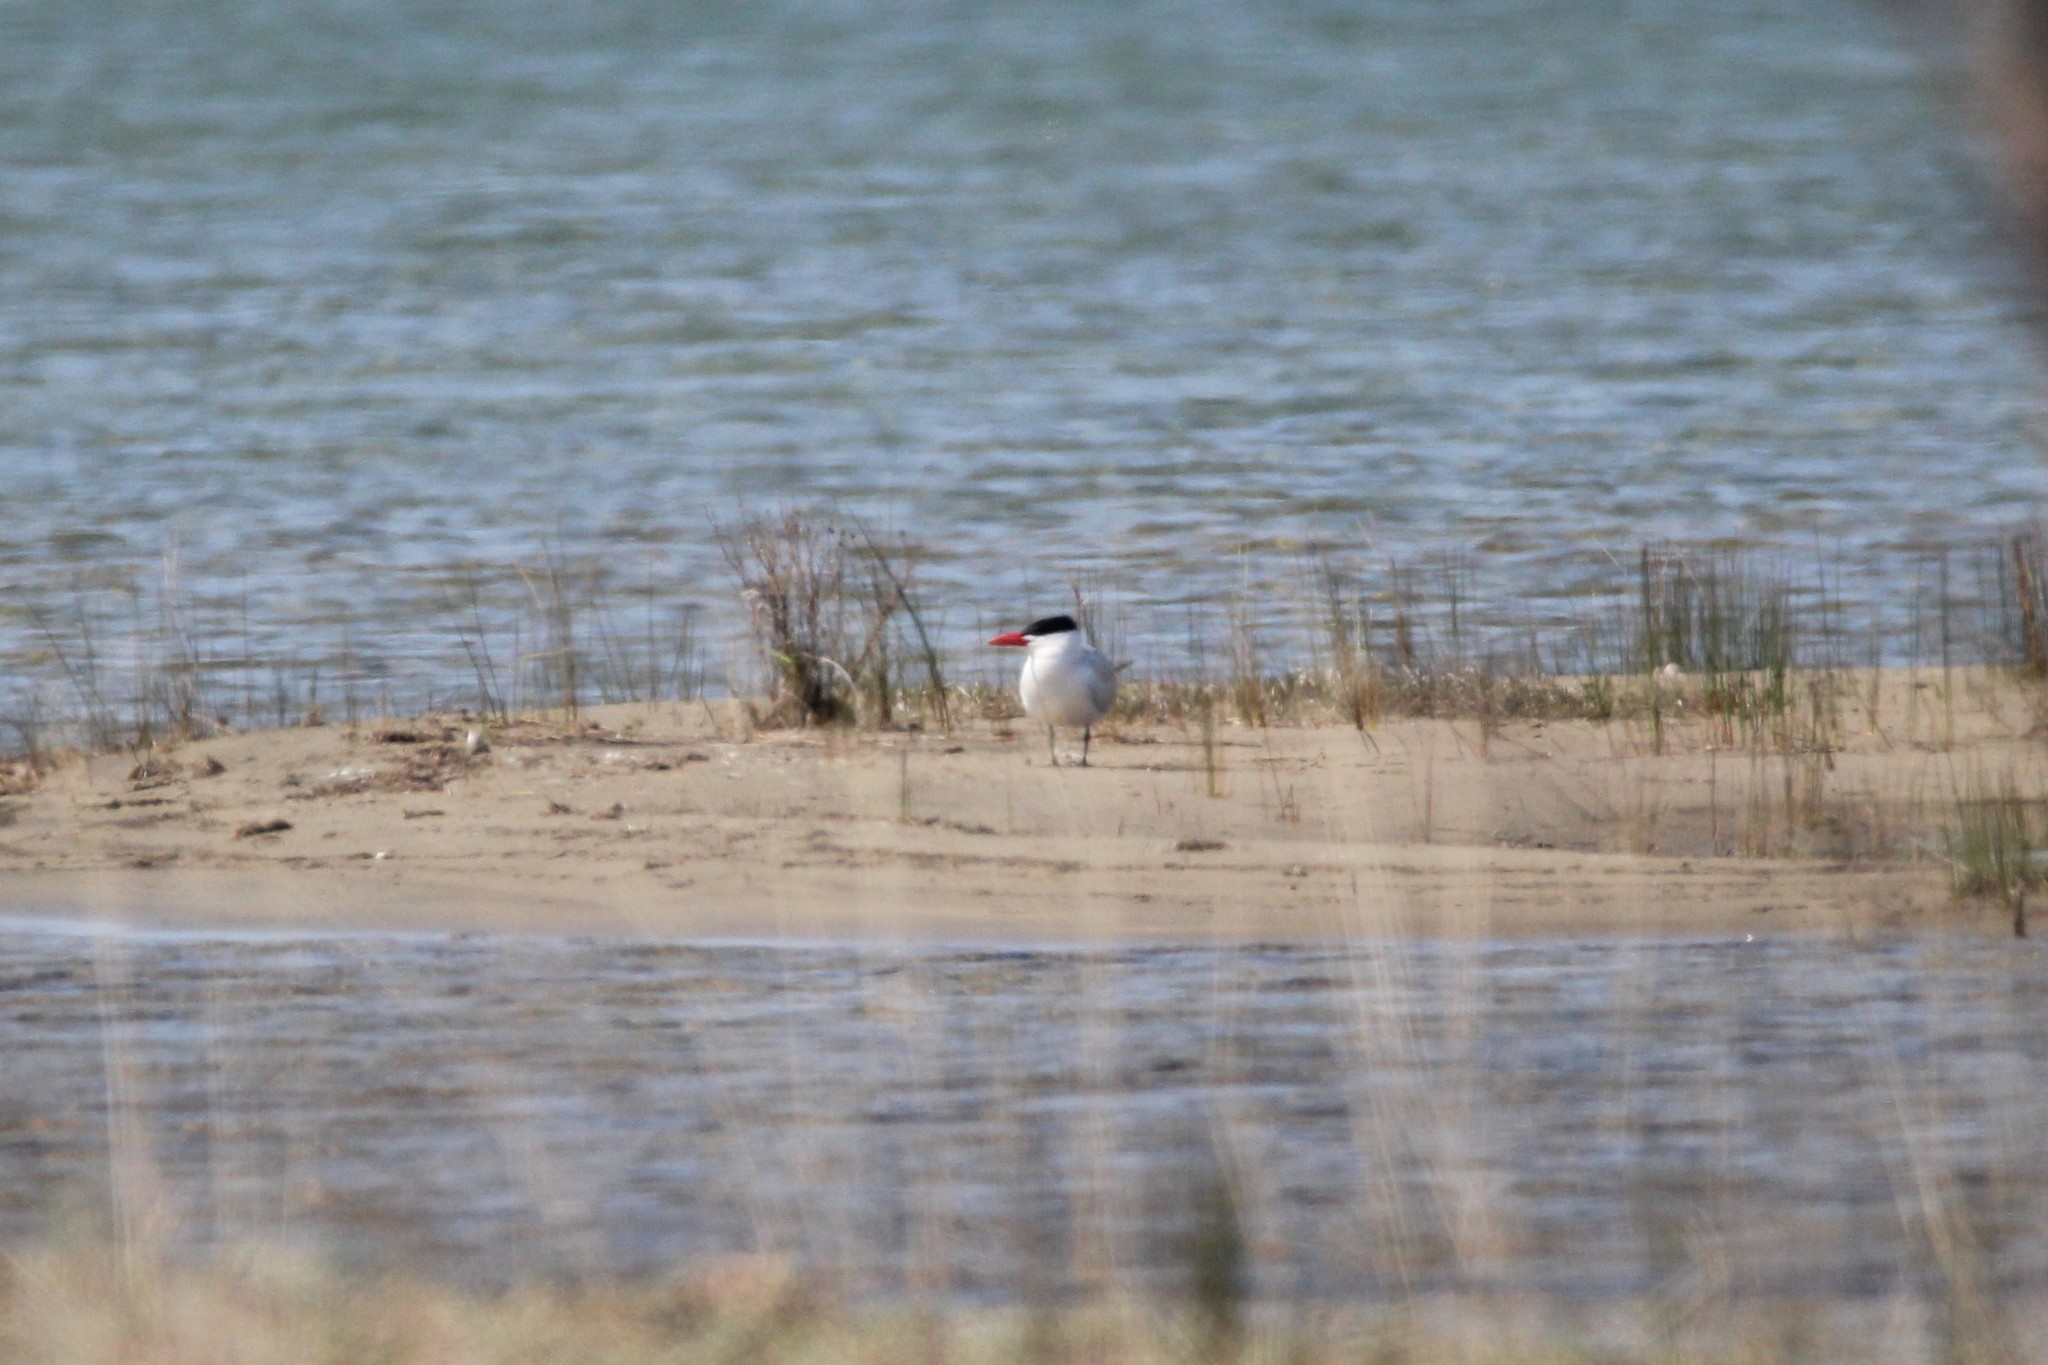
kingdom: Animalia
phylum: Chordata
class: Aves
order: Charadriiformes
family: Laridae
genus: Hydroprogne
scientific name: Hydroprogne caspia
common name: Caspian tern
